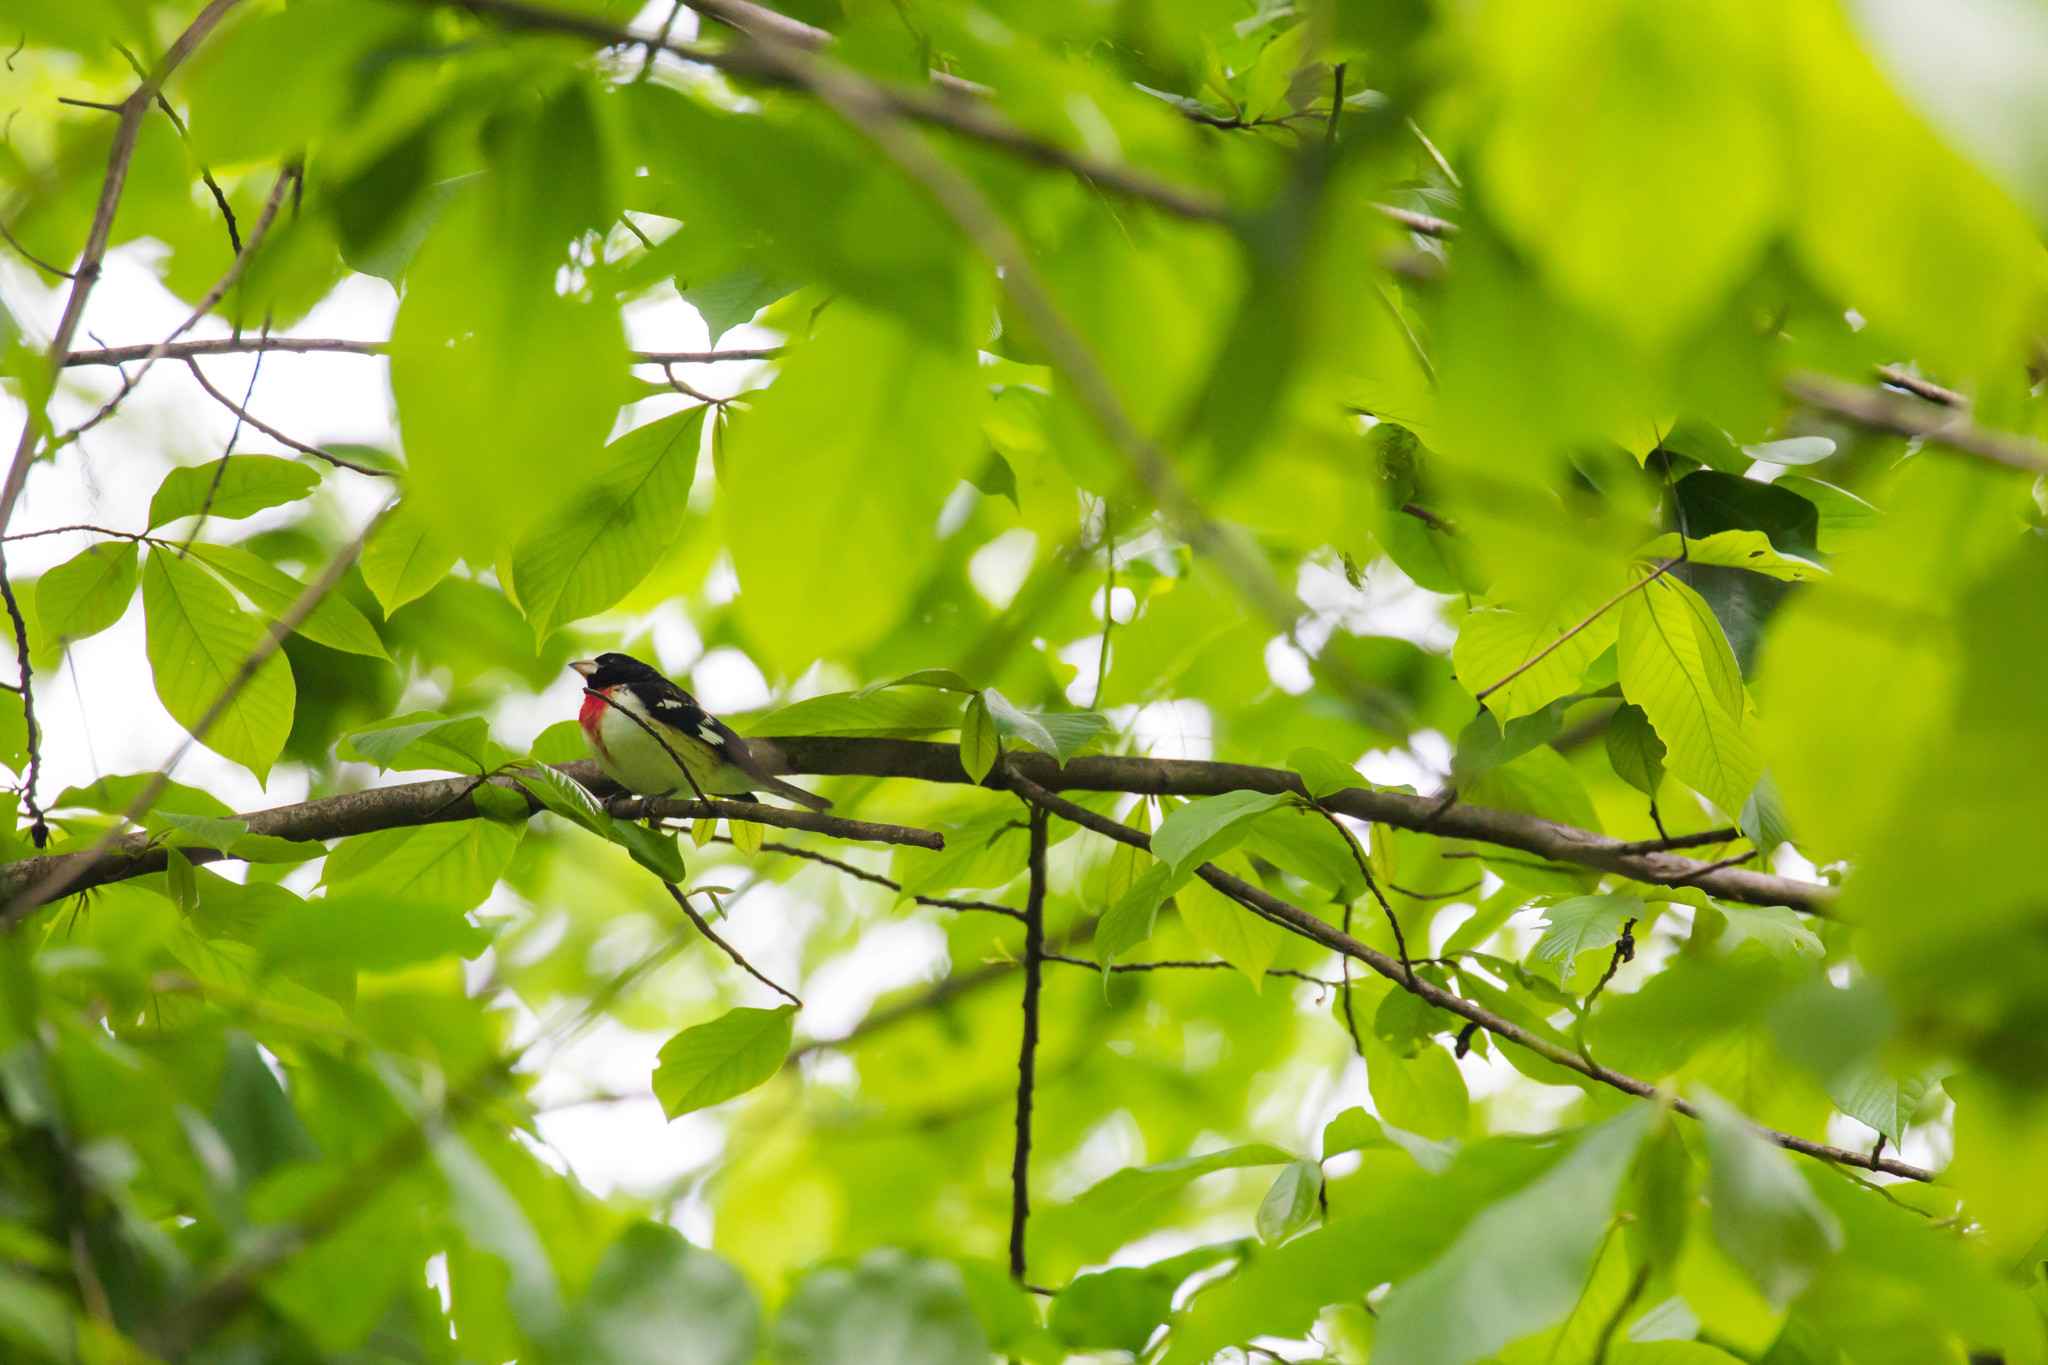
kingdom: Animalia
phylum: Chordata
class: Aves
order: Passeriformes
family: Cardinalidae
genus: Pheucticus
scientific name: Pheucticus ludovicianus
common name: Rose-breasted grosbeak
